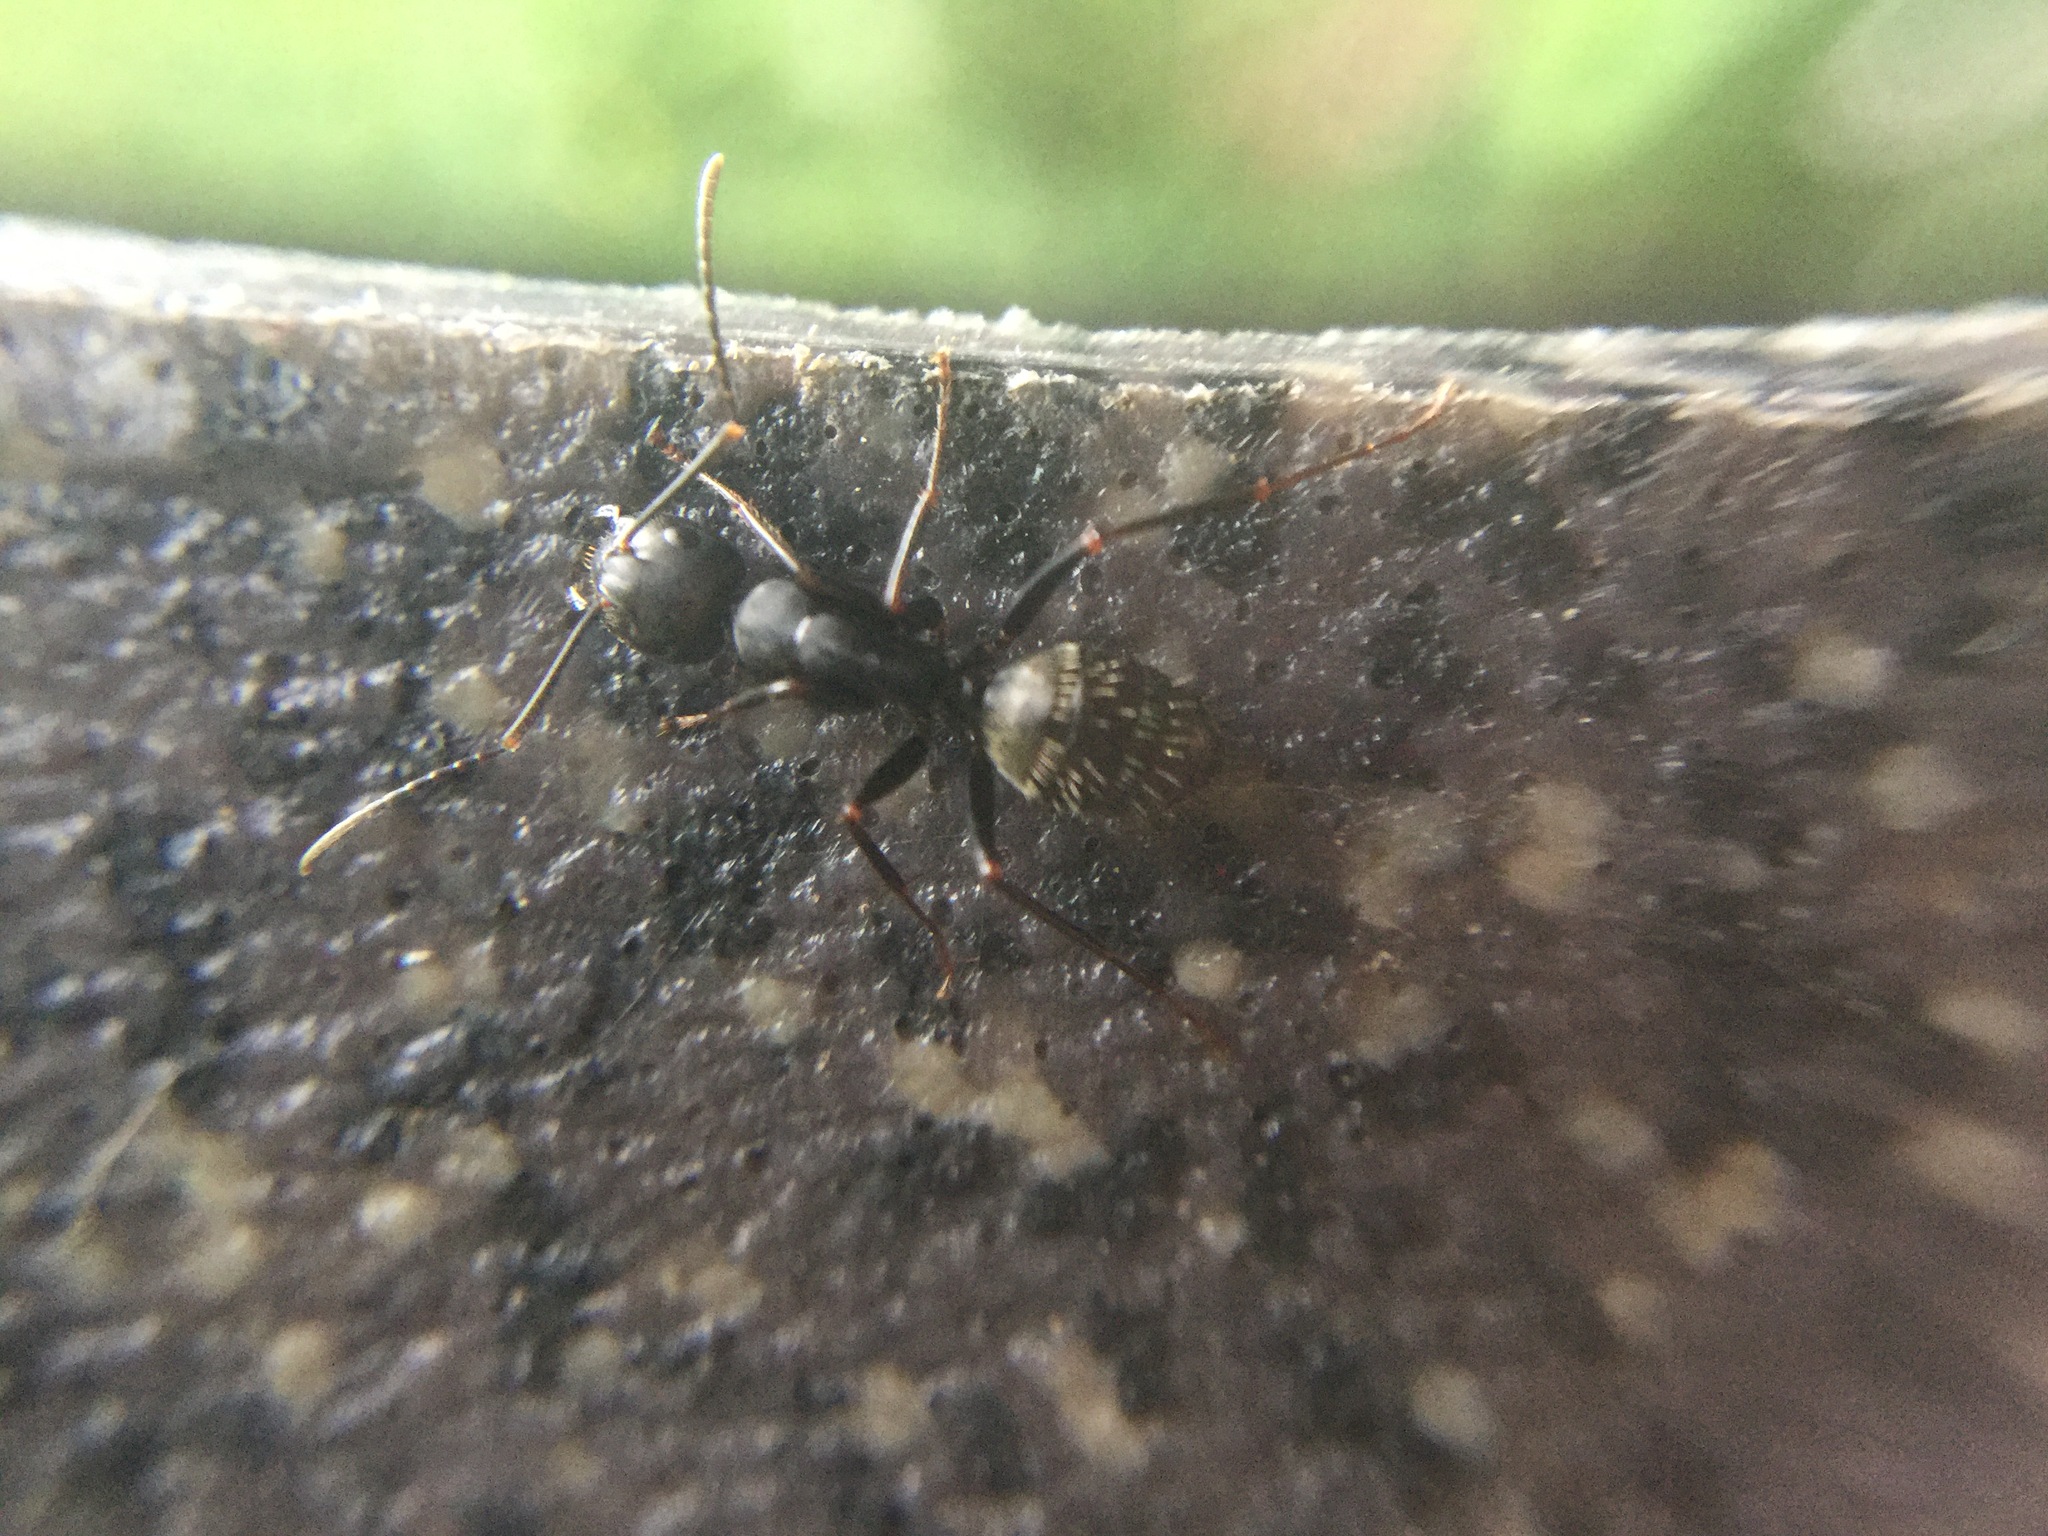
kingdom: Animalia
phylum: Arthropoda
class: Insecta
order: Hymenoptera
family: Formicidae
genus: Camponotus
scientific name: Camponotus pennsylvanicus
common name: Black carpenter ant
